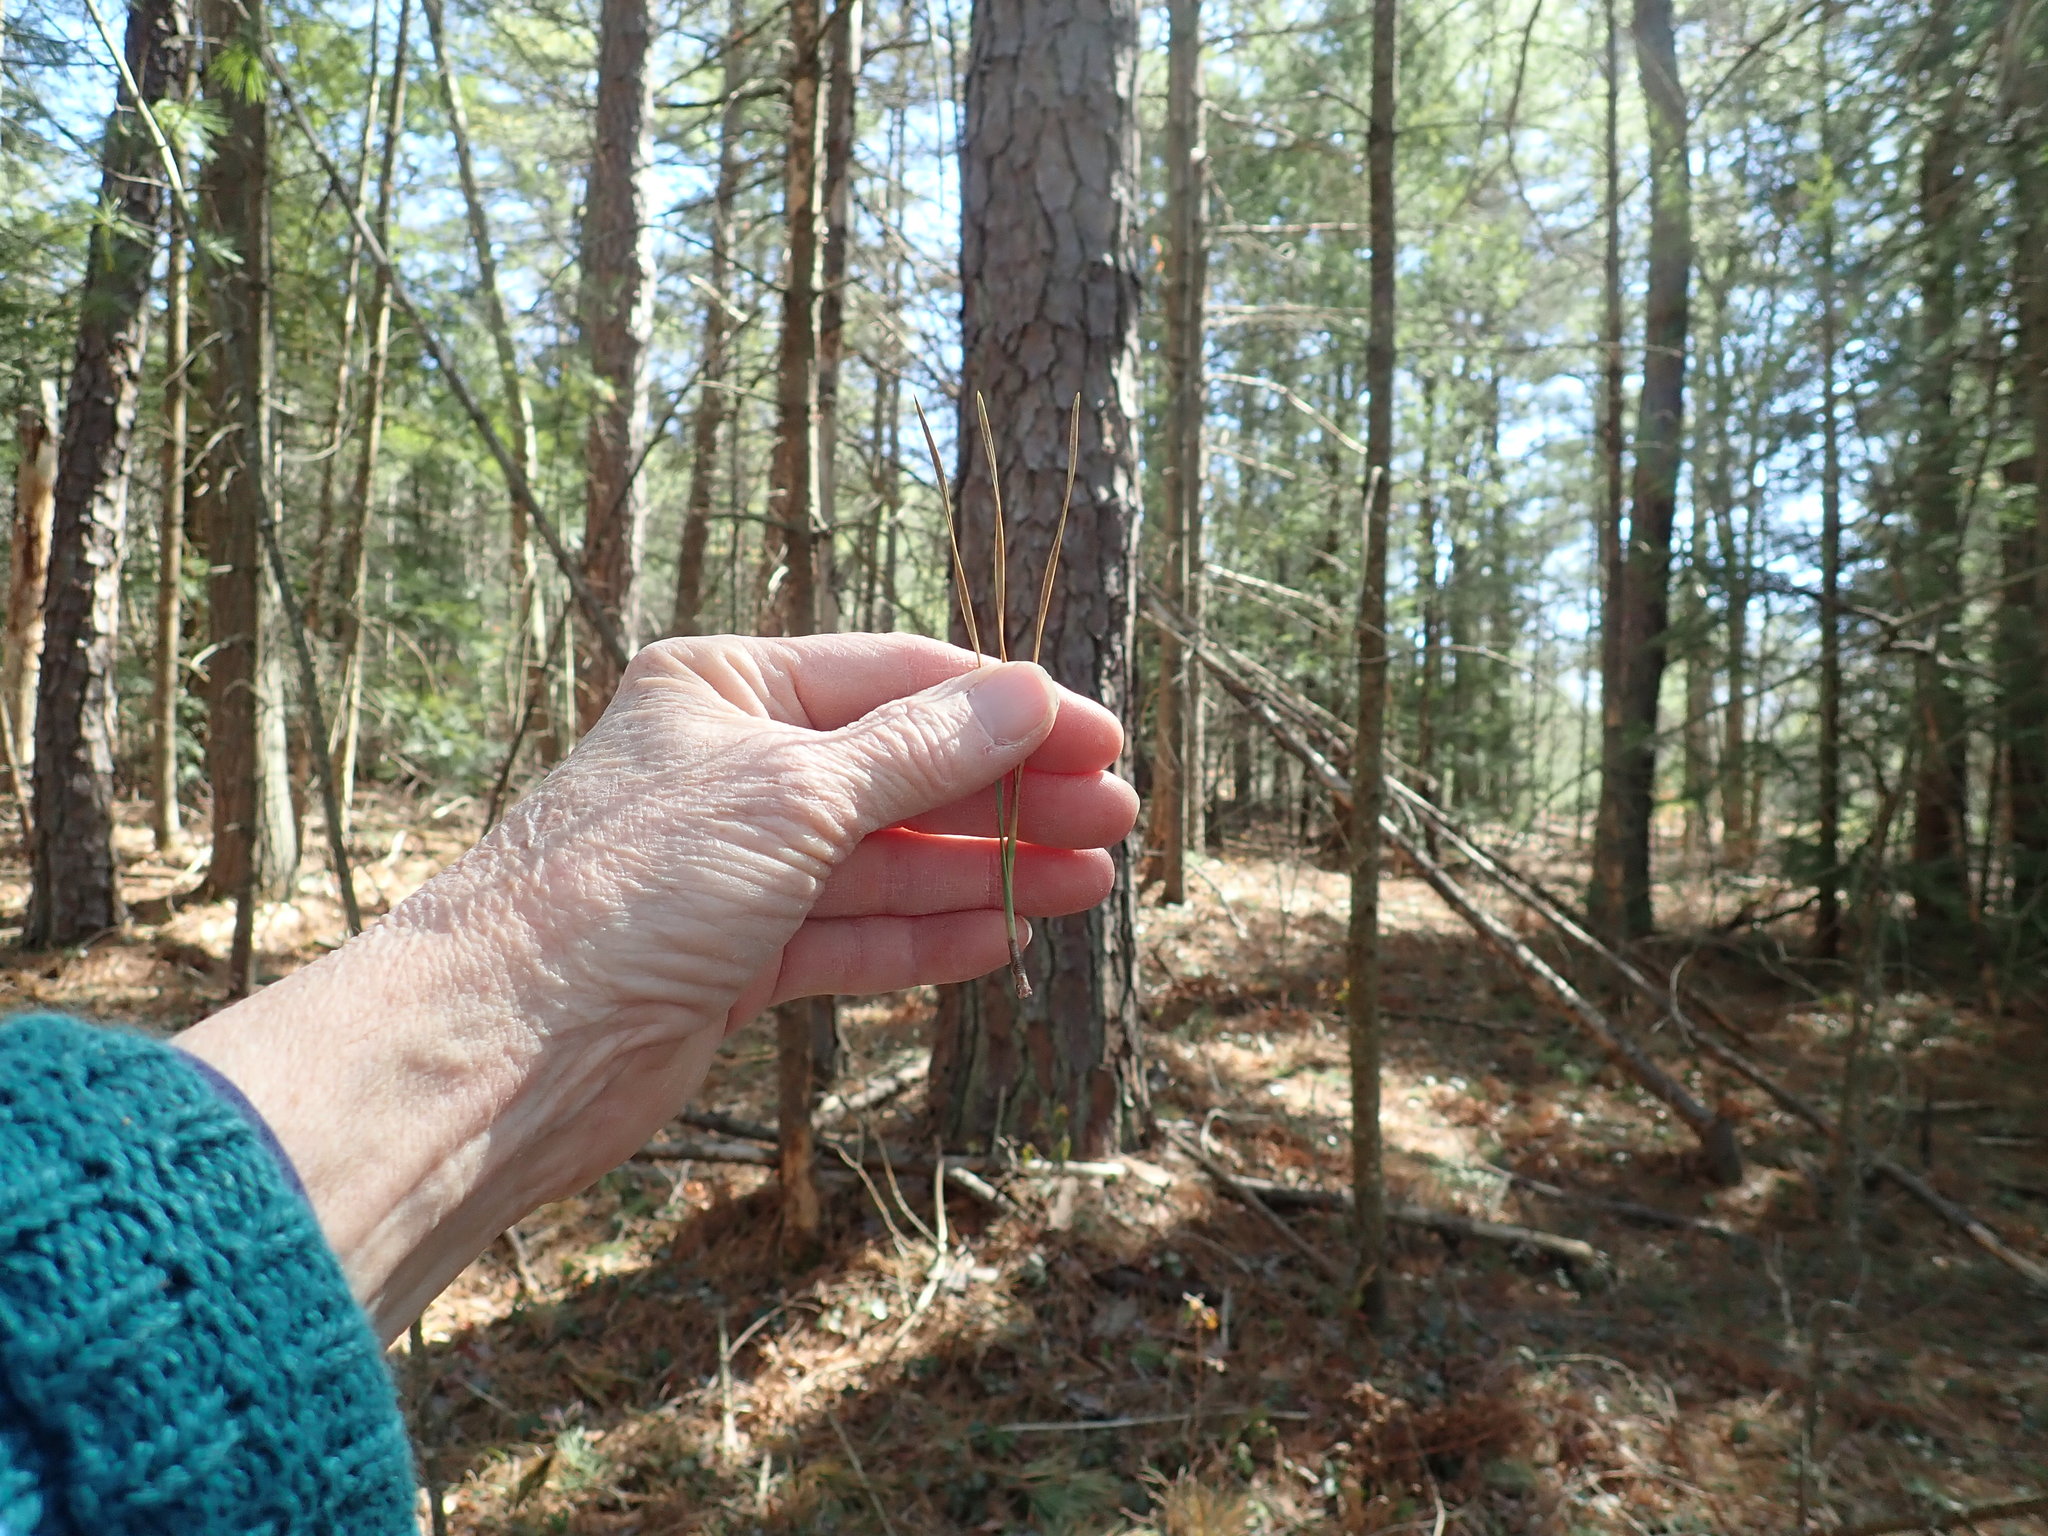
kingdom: Plantae
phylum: Tracheophyta
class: Pinopsida
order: Pinales
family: Pinaceae
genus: Pinus
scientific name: Pinus rigida
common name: Pitch pine
